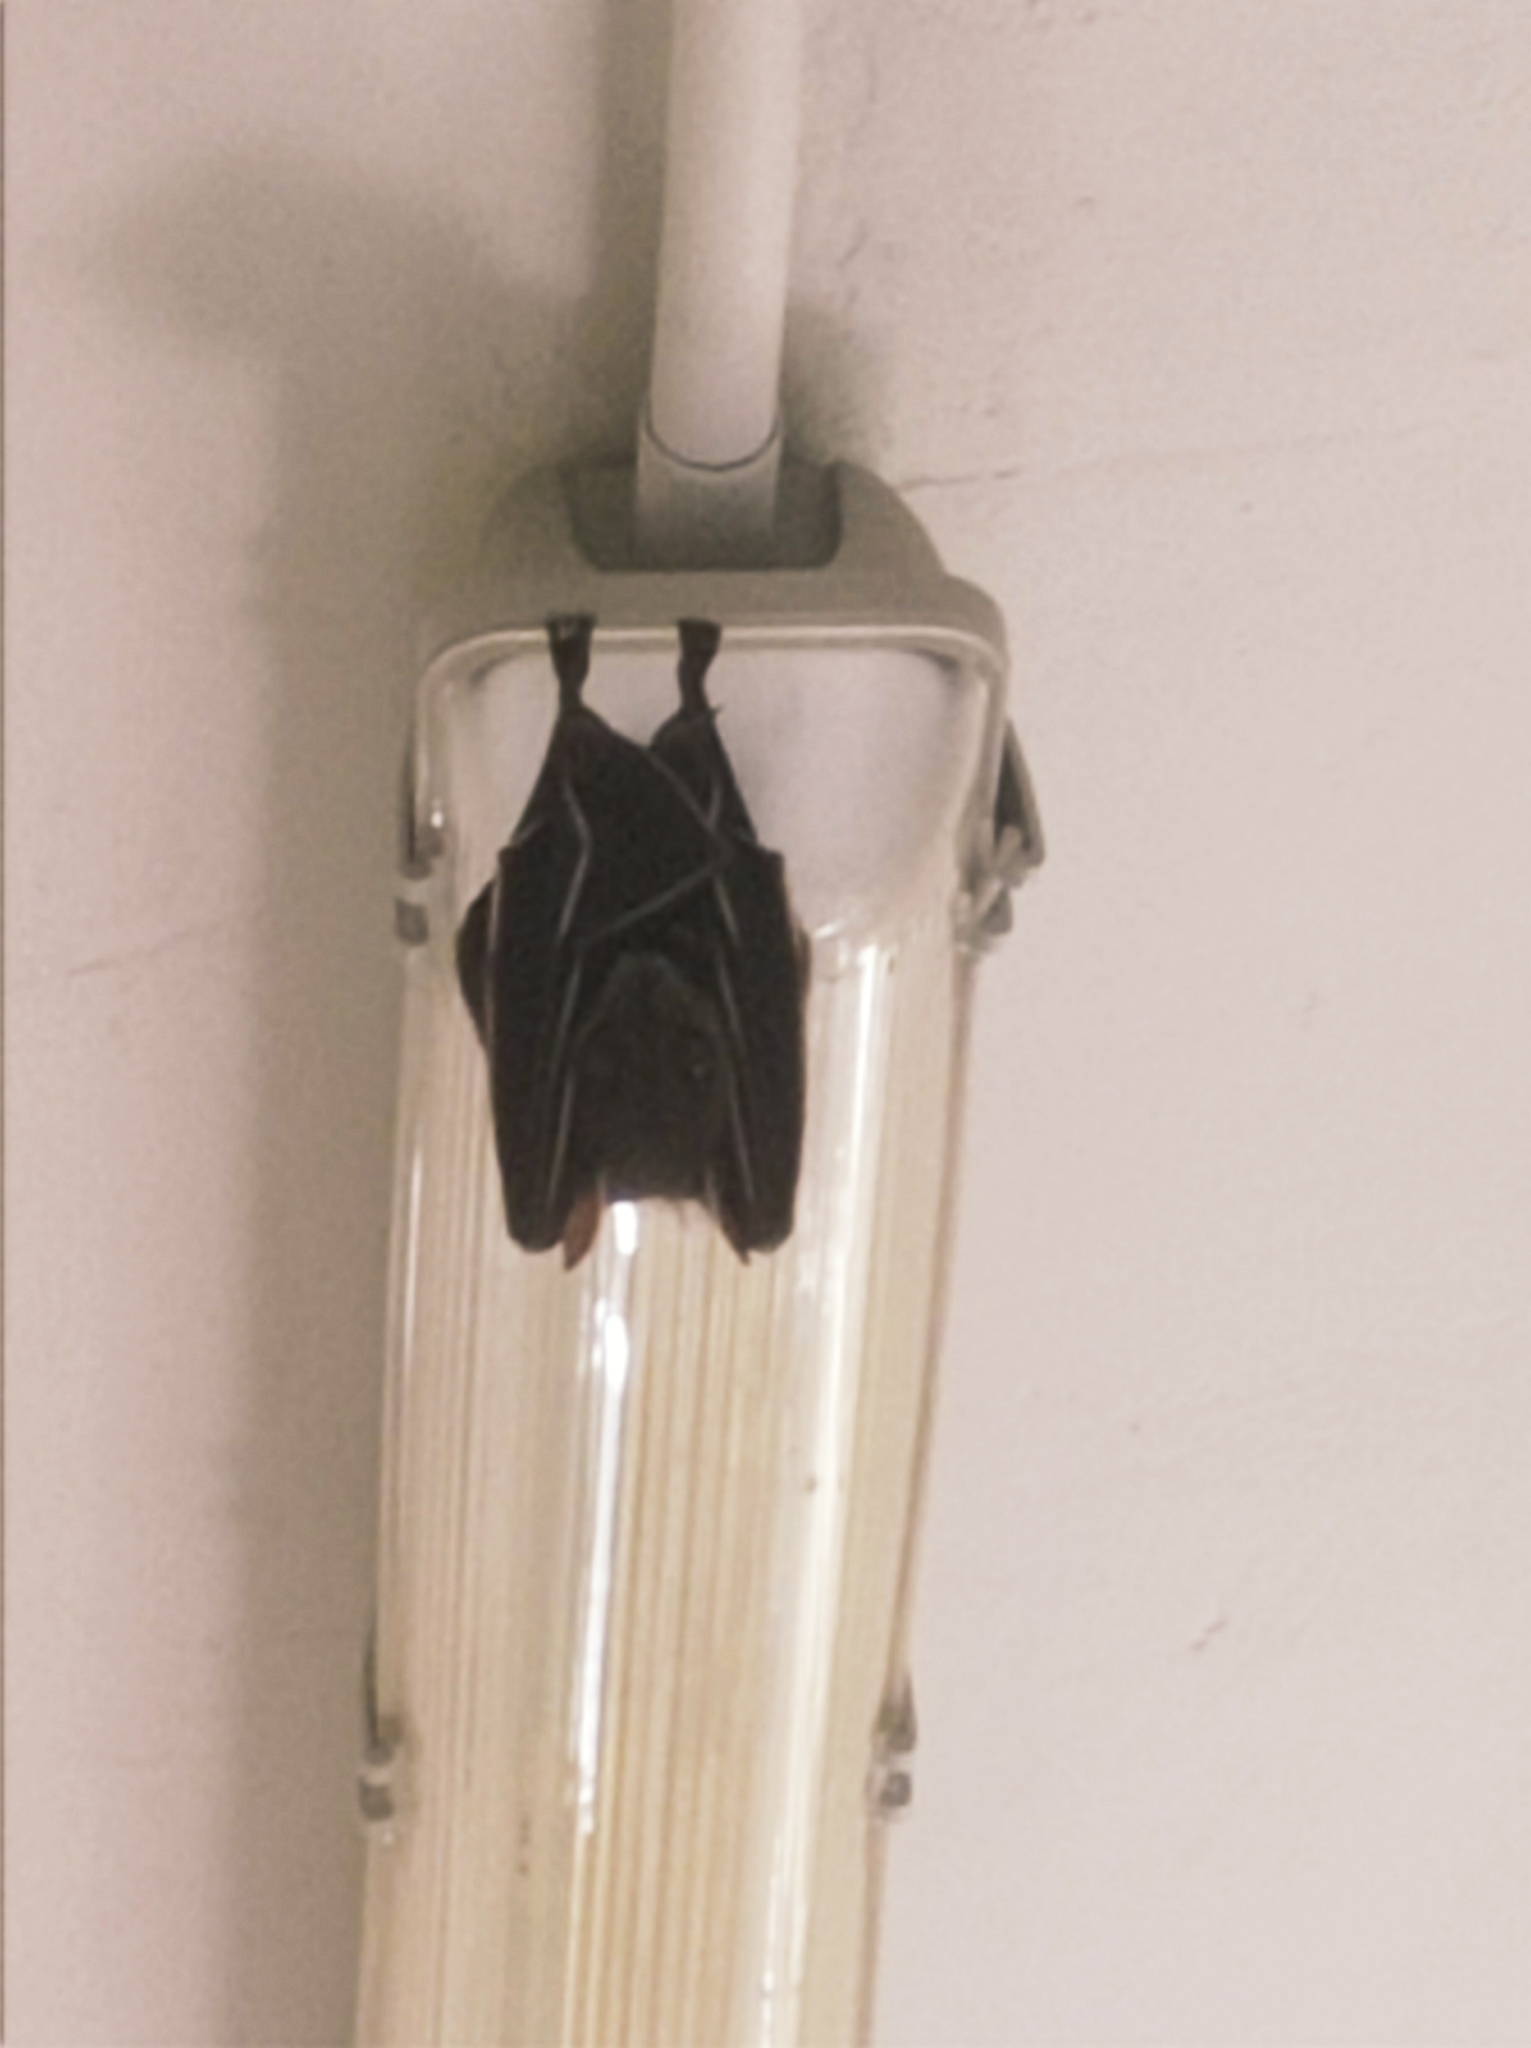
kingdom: Animalia
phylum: Chordata
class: Mammalia
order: Chiroptera
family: Pteropodidae
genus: Cynopterus
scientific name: Cynopterus sphinx
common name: Greater short-nosed fruit bat
